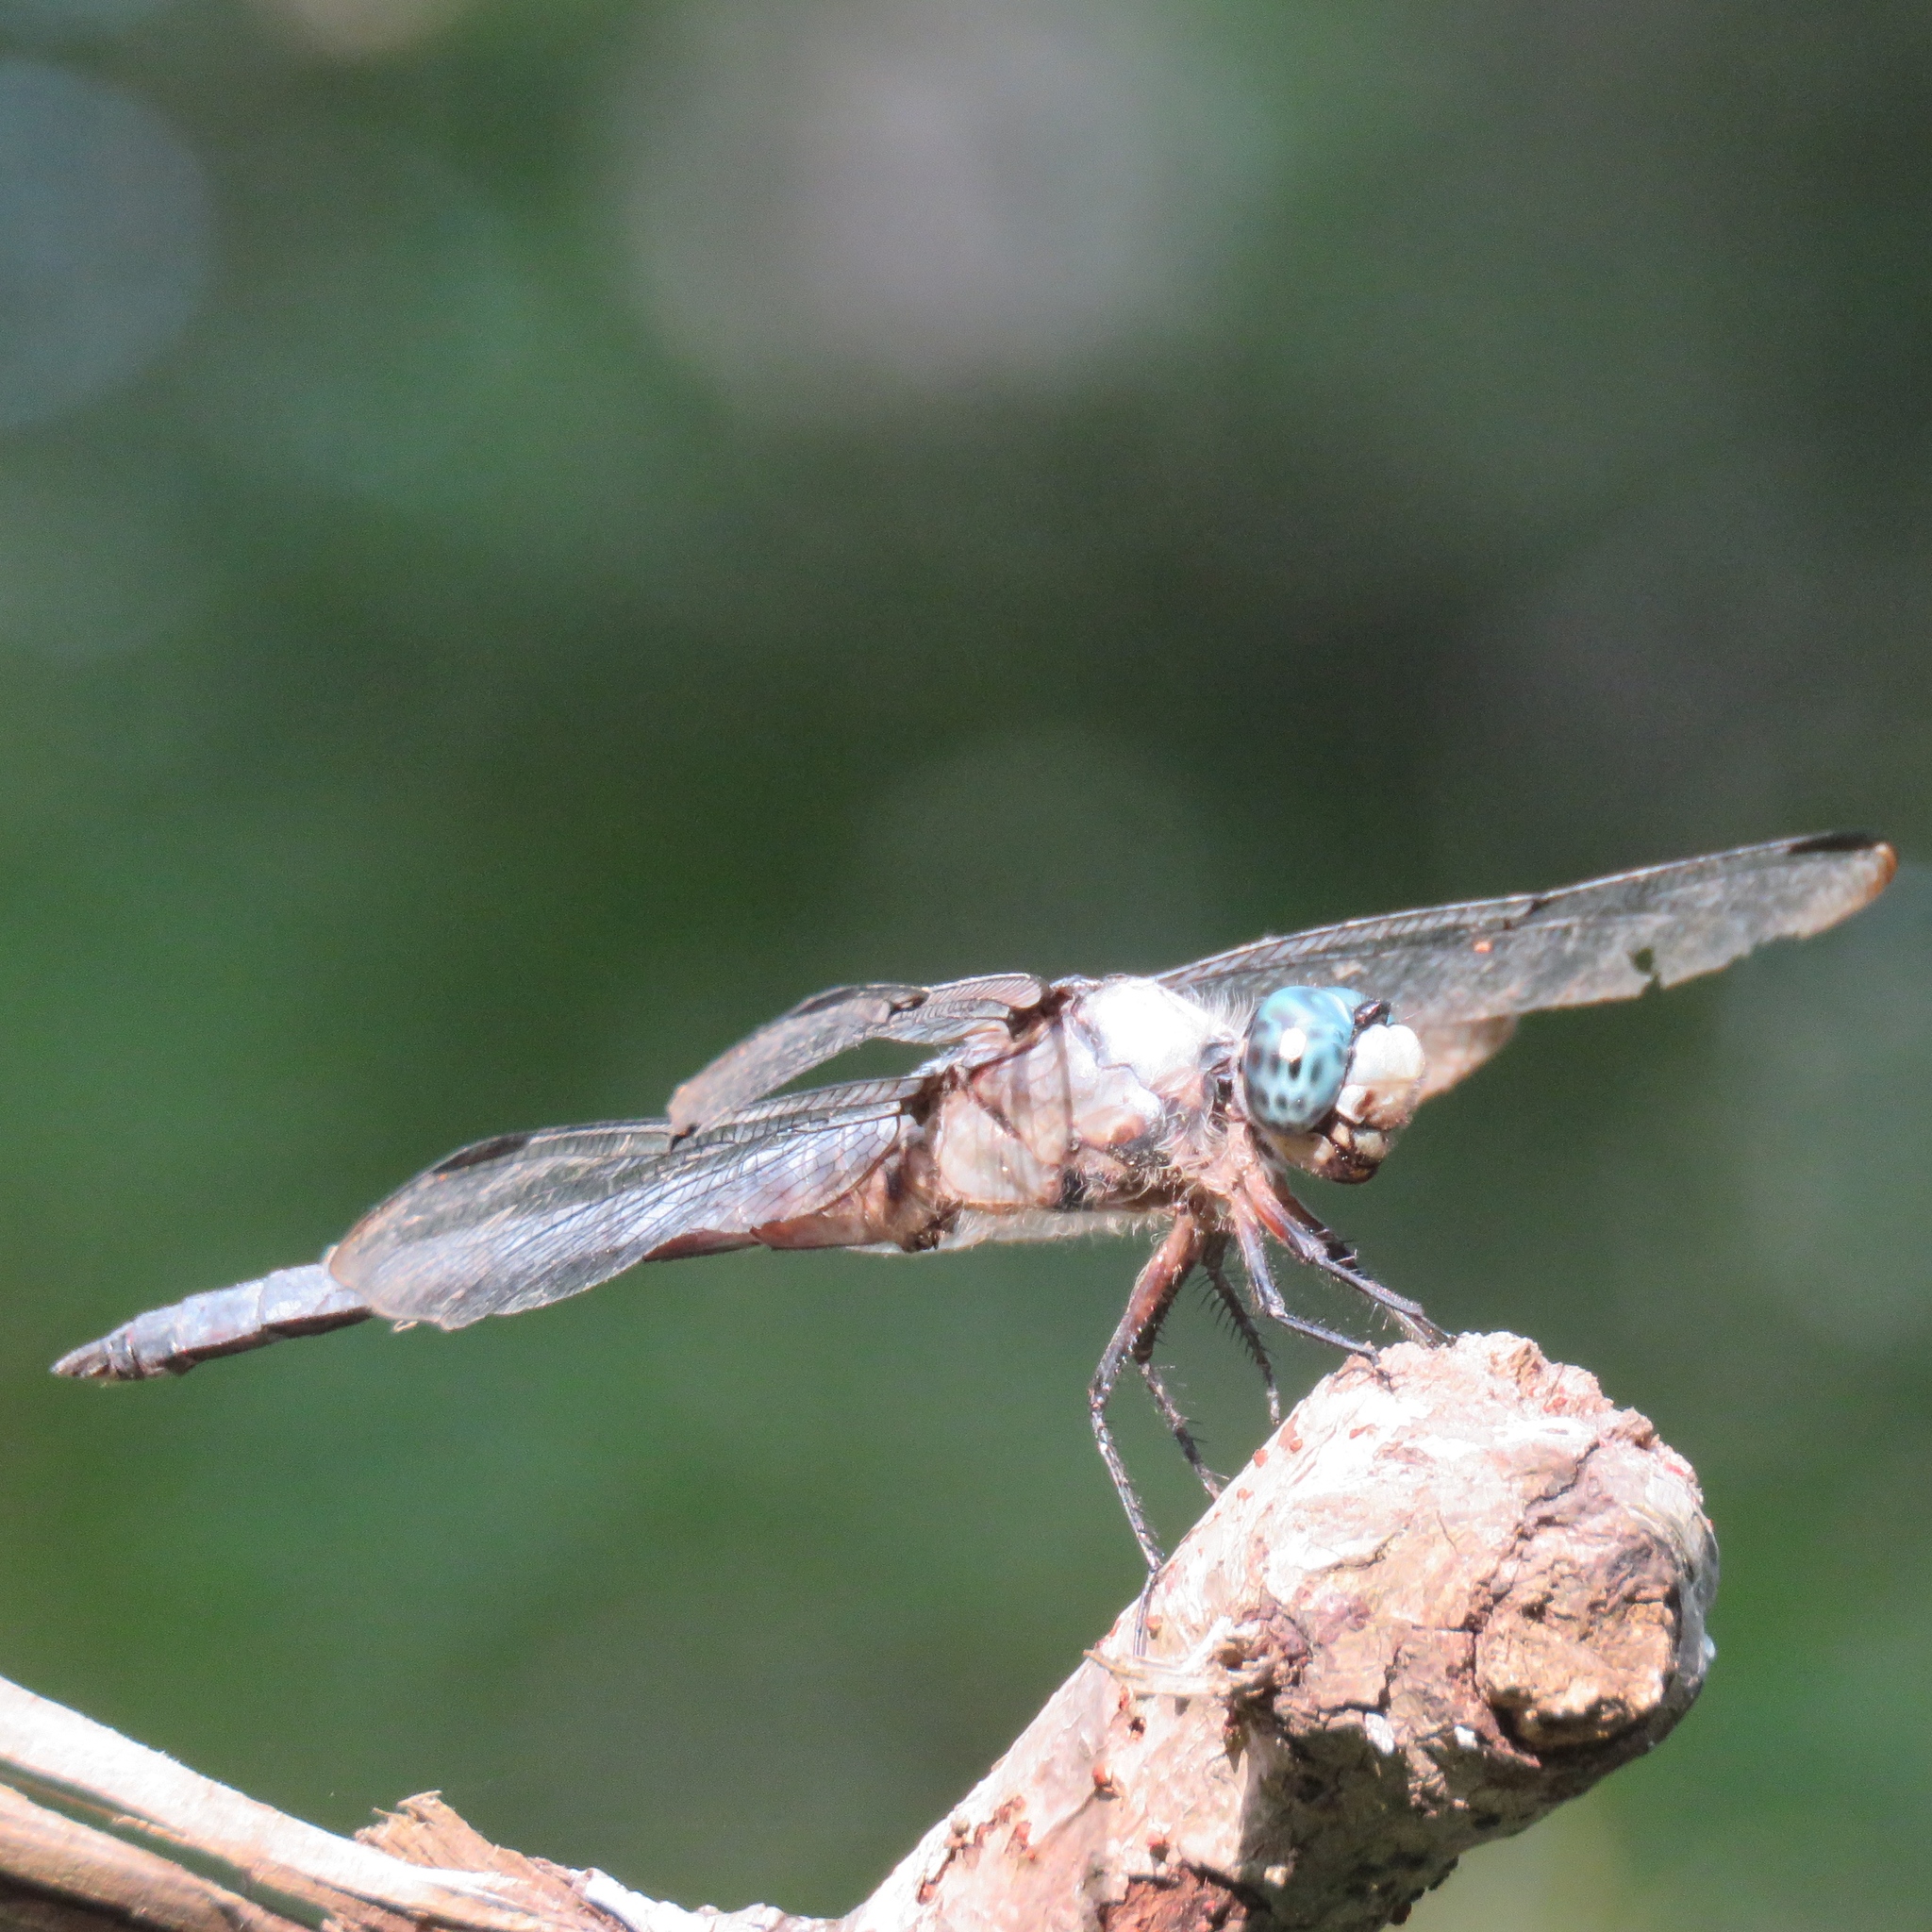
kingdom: Animalia
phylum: Arthropoda
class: Insecta
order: Odonata
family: Libellulidae
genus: Libellula
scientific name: Libellula vibrans
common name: Great blue skimmer
